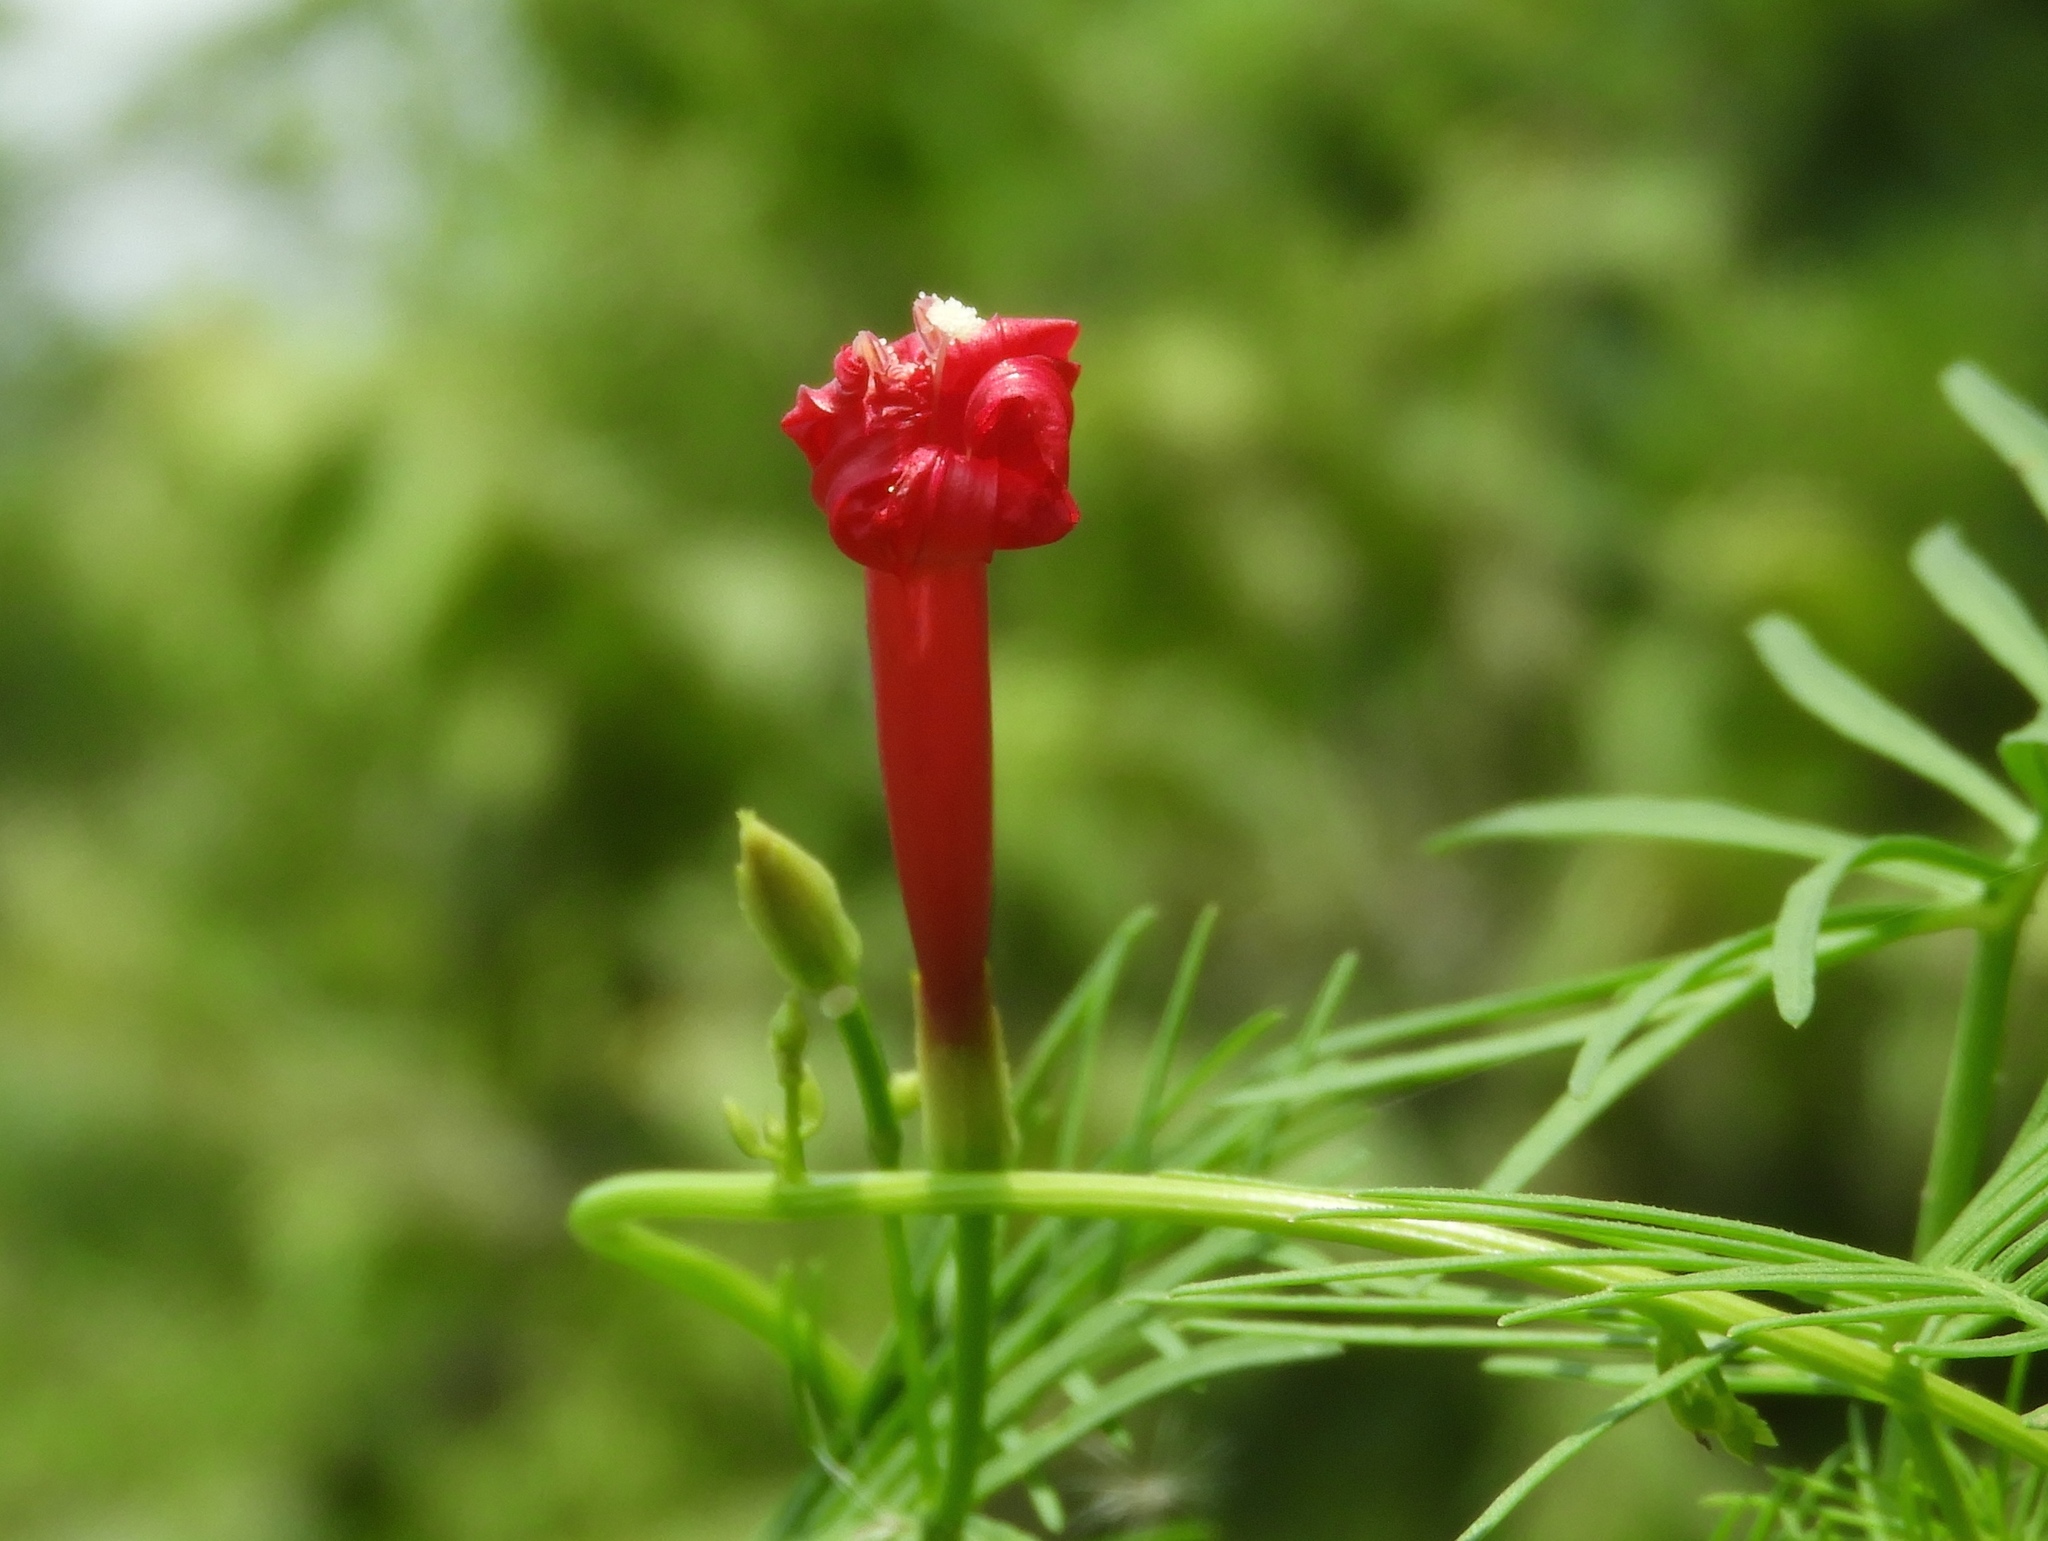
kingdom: Plantae
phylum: Tracheophyta
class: Magnoliopsida
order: Solanales
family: Convolvulaceae
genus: Ipomoea
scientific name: Ipomoea quamoclit
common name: Cypress vine
